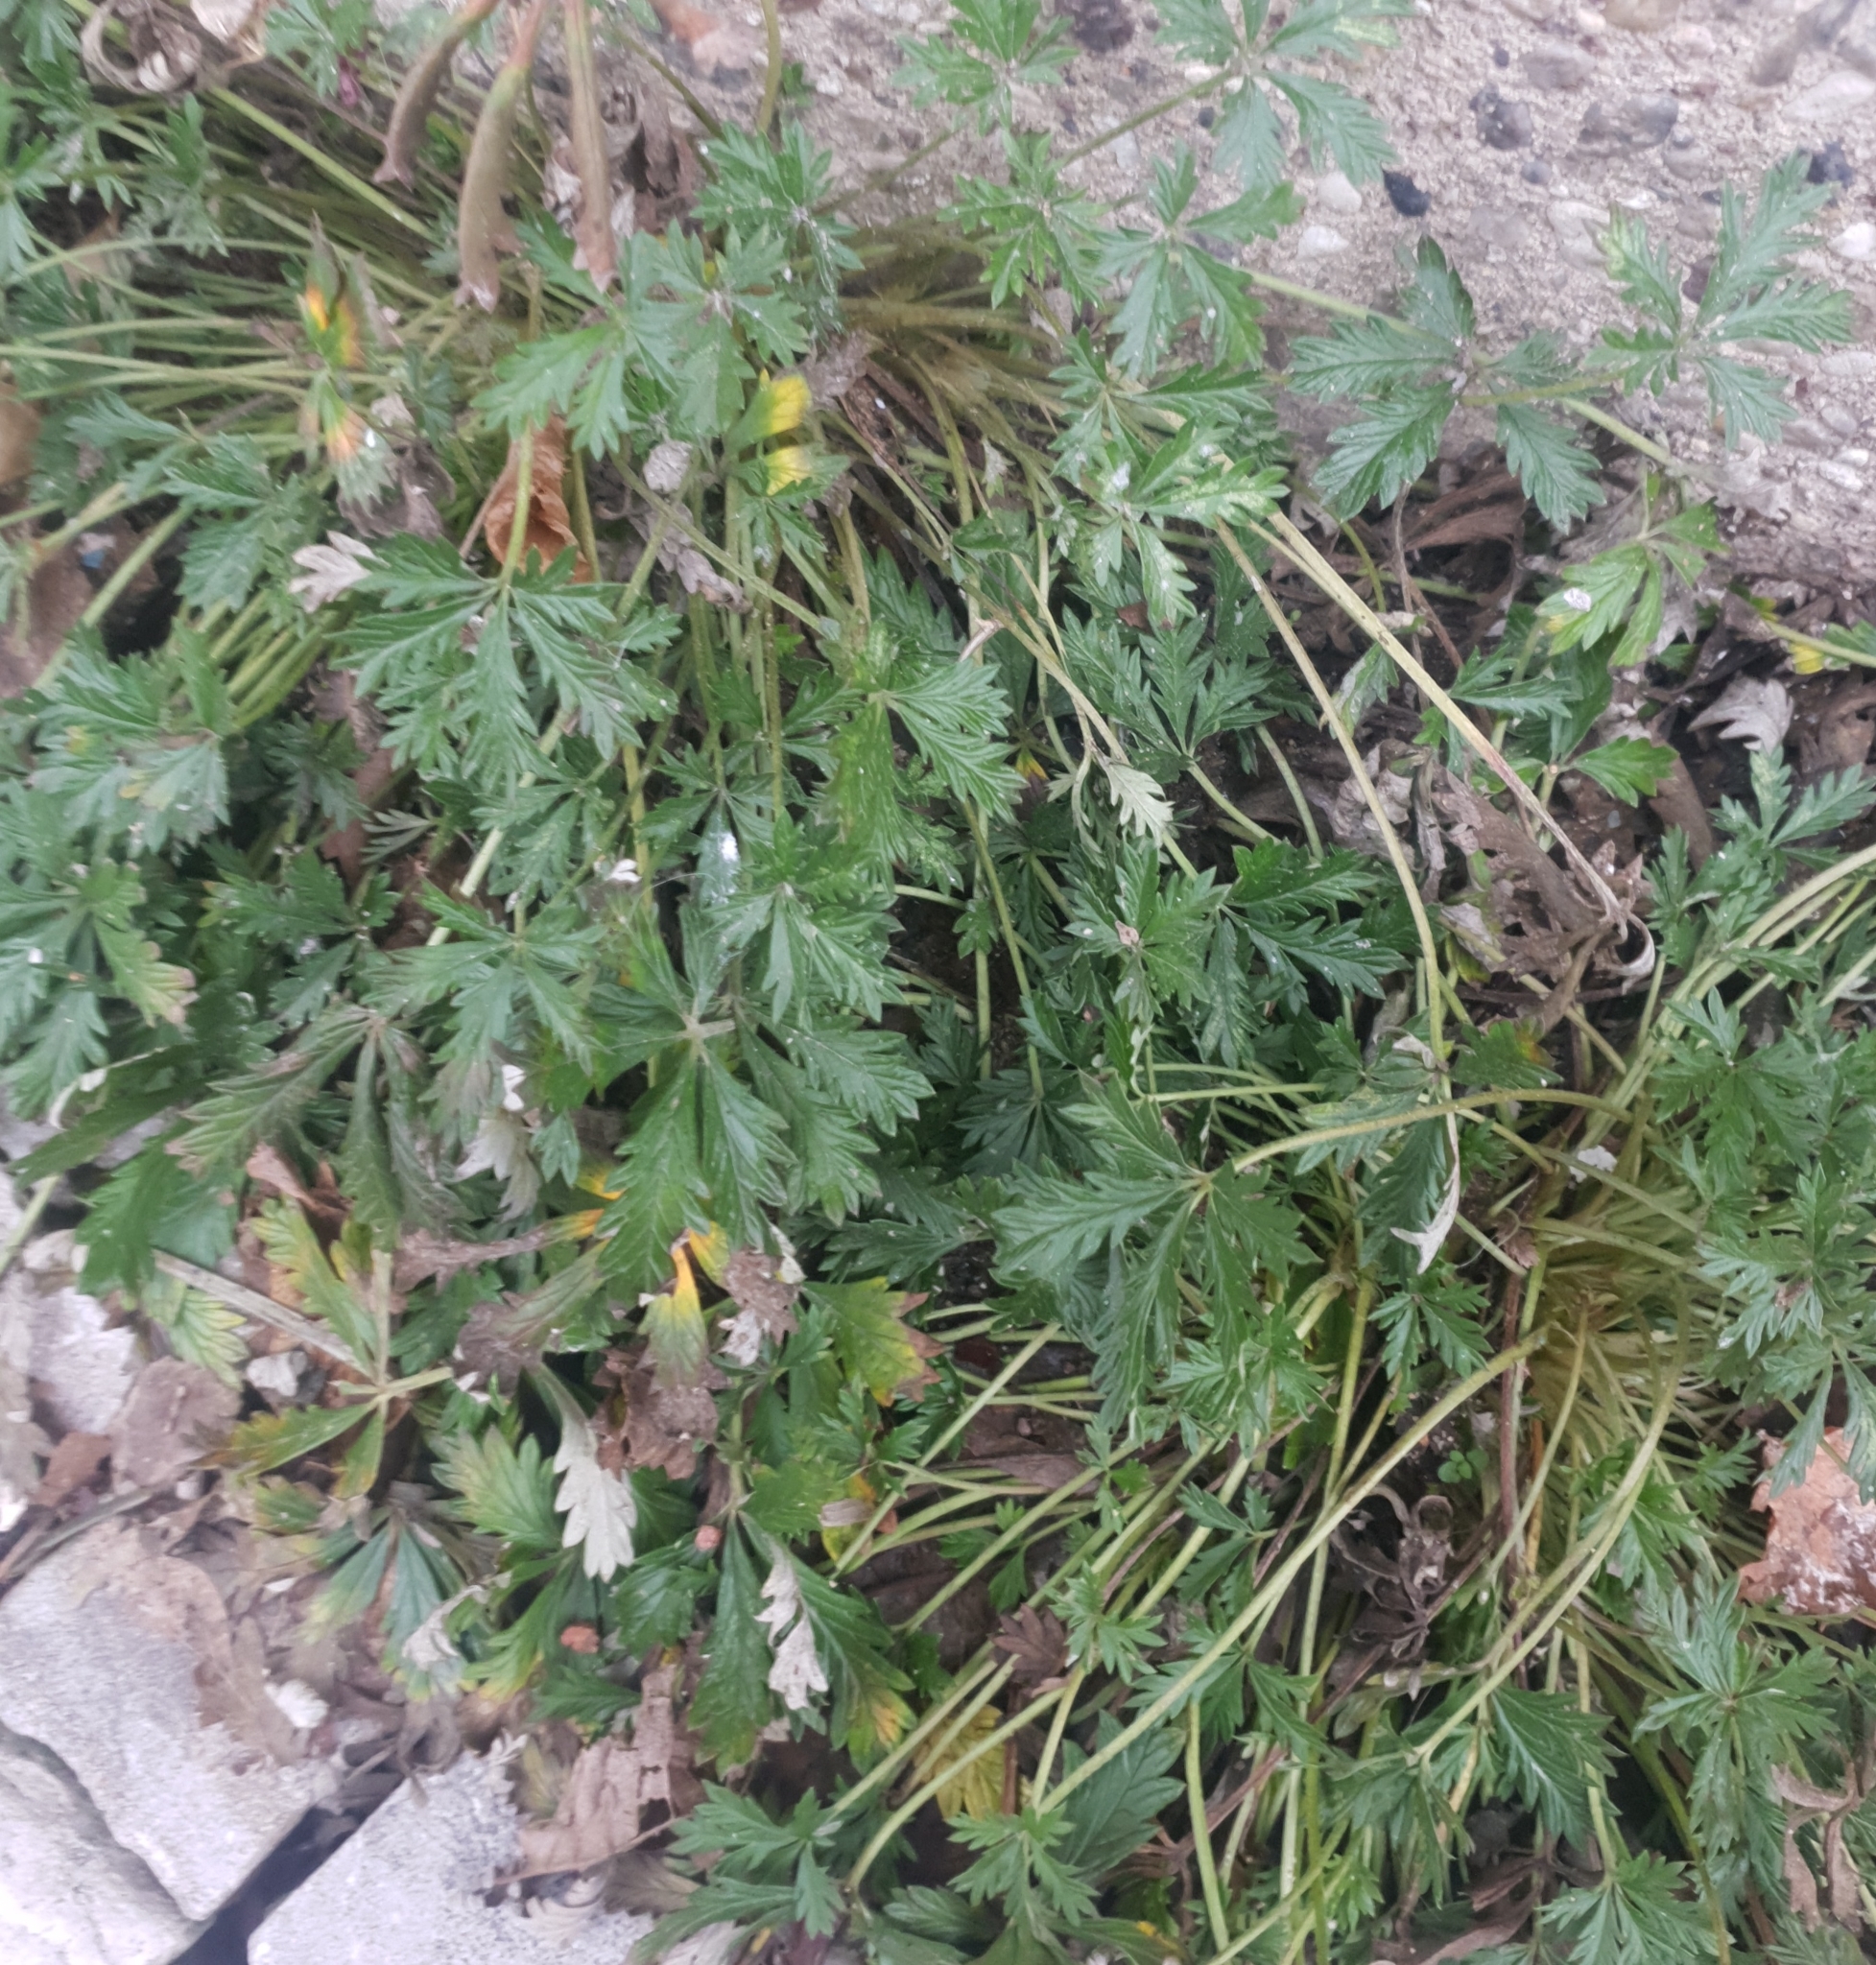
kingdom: Plantae
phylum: Tracheophyta
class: Magnoliopsida
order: Rosales
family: Rosaceae
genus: Potentilla
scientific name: Potentilla argentea
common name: Hoary cinquefoil
